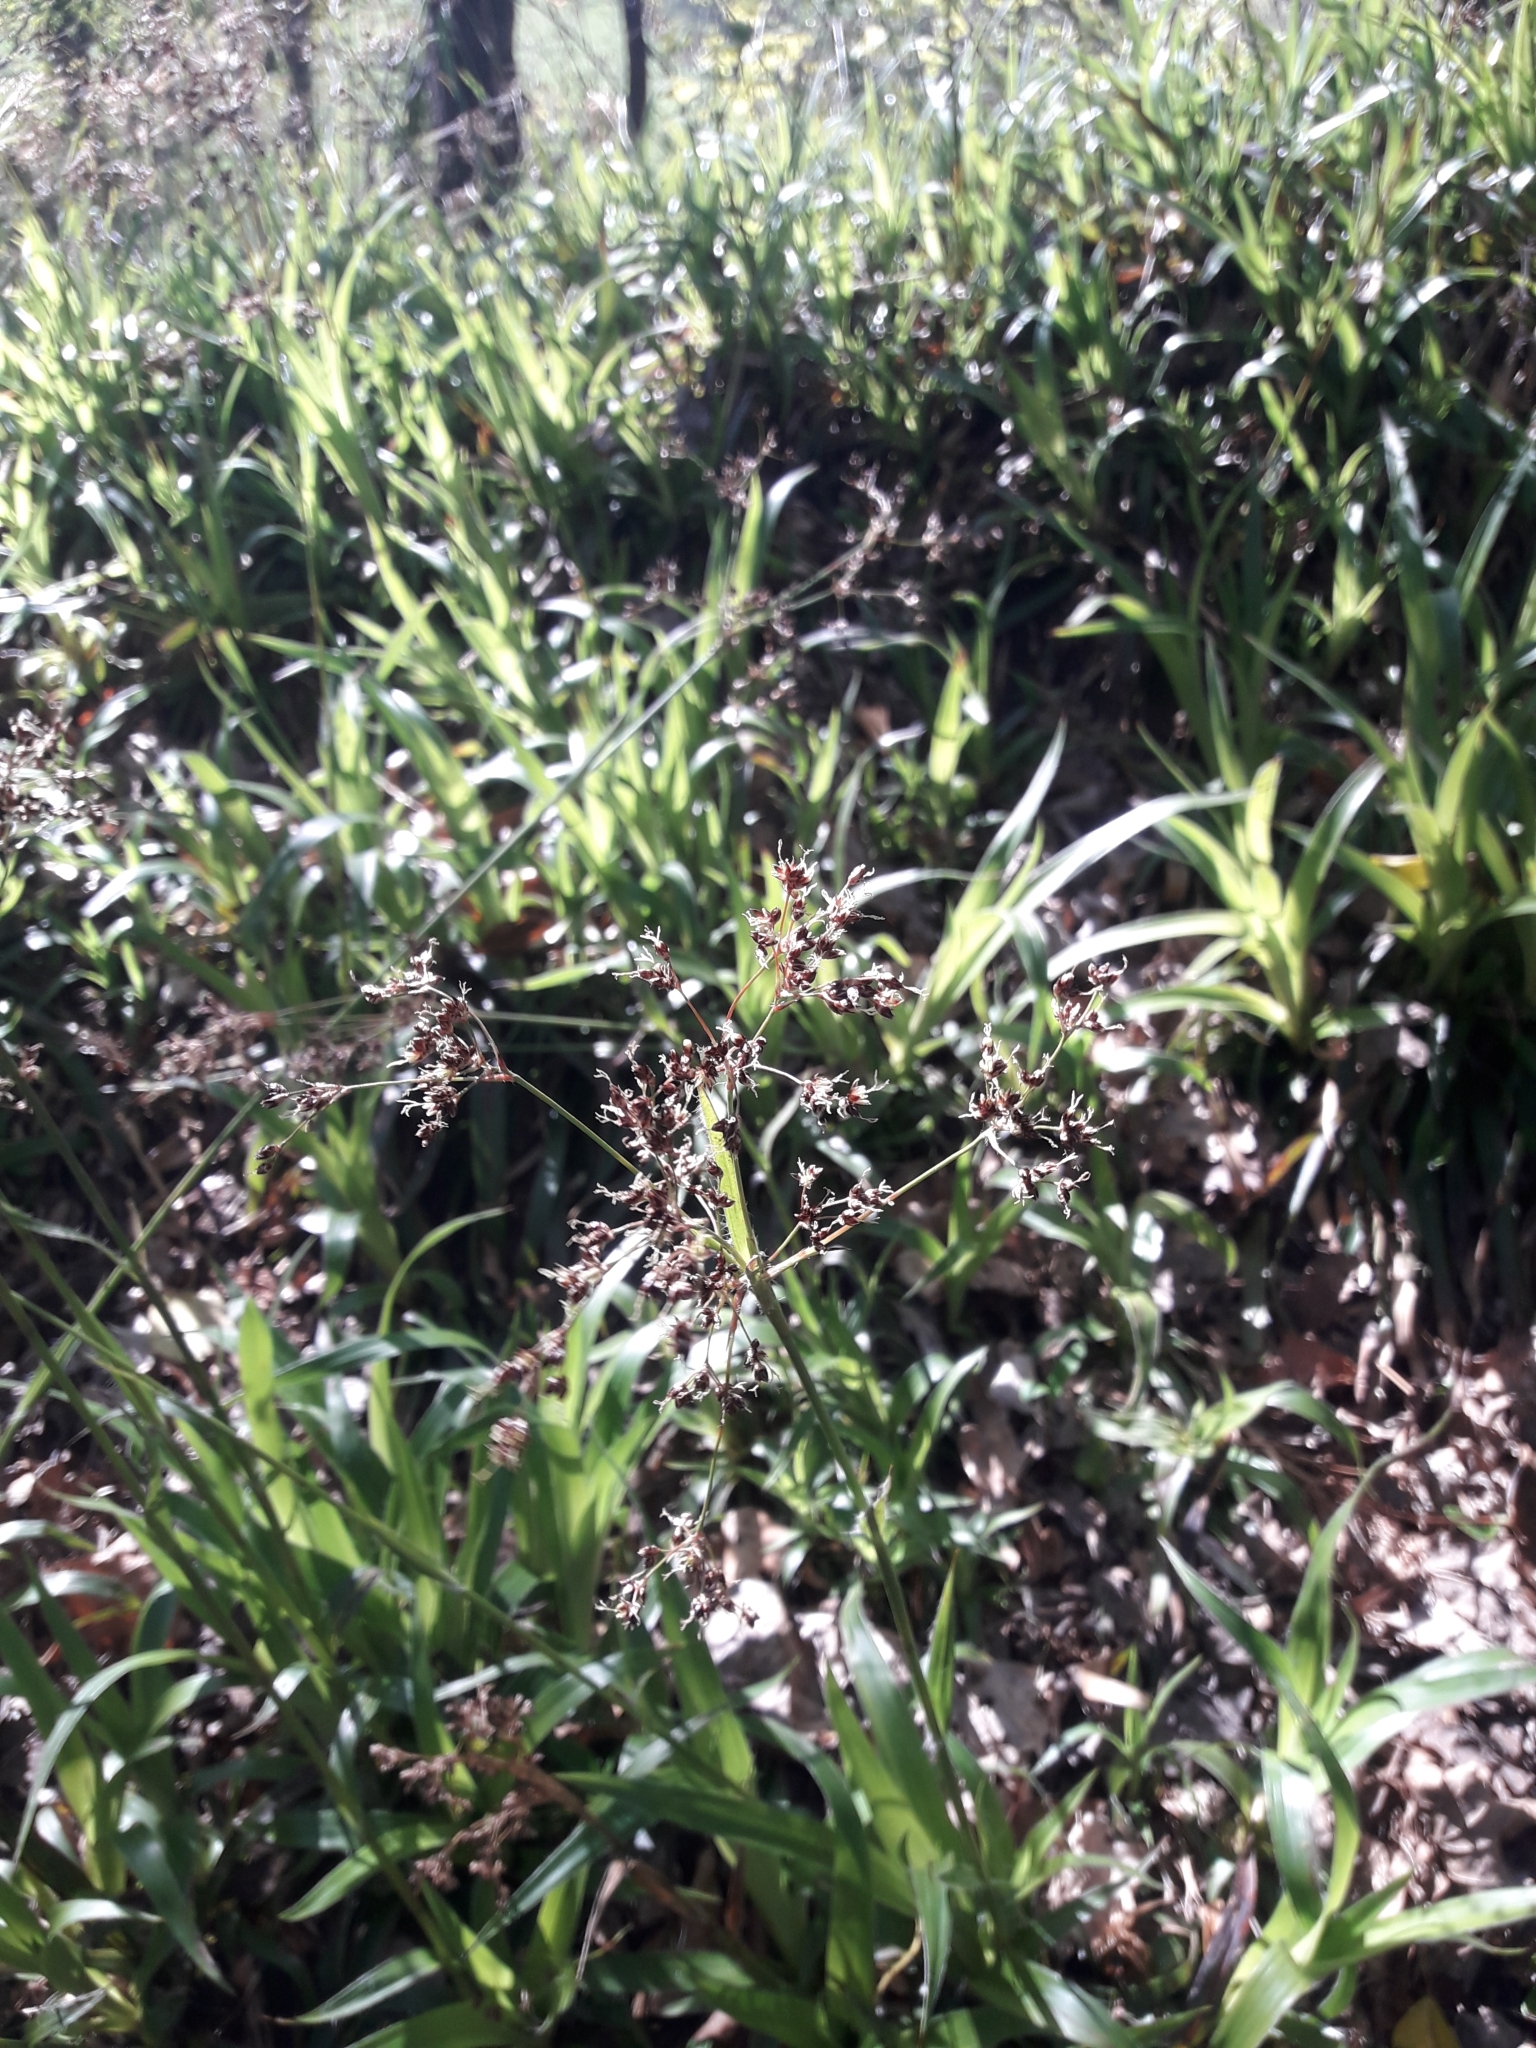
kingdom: Plantae
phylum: Tracheophyta
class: Liliopsida
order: Poales
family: Juncaceae
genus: Luzula
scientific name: Luzula sylvatica
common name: Great wood-rush
